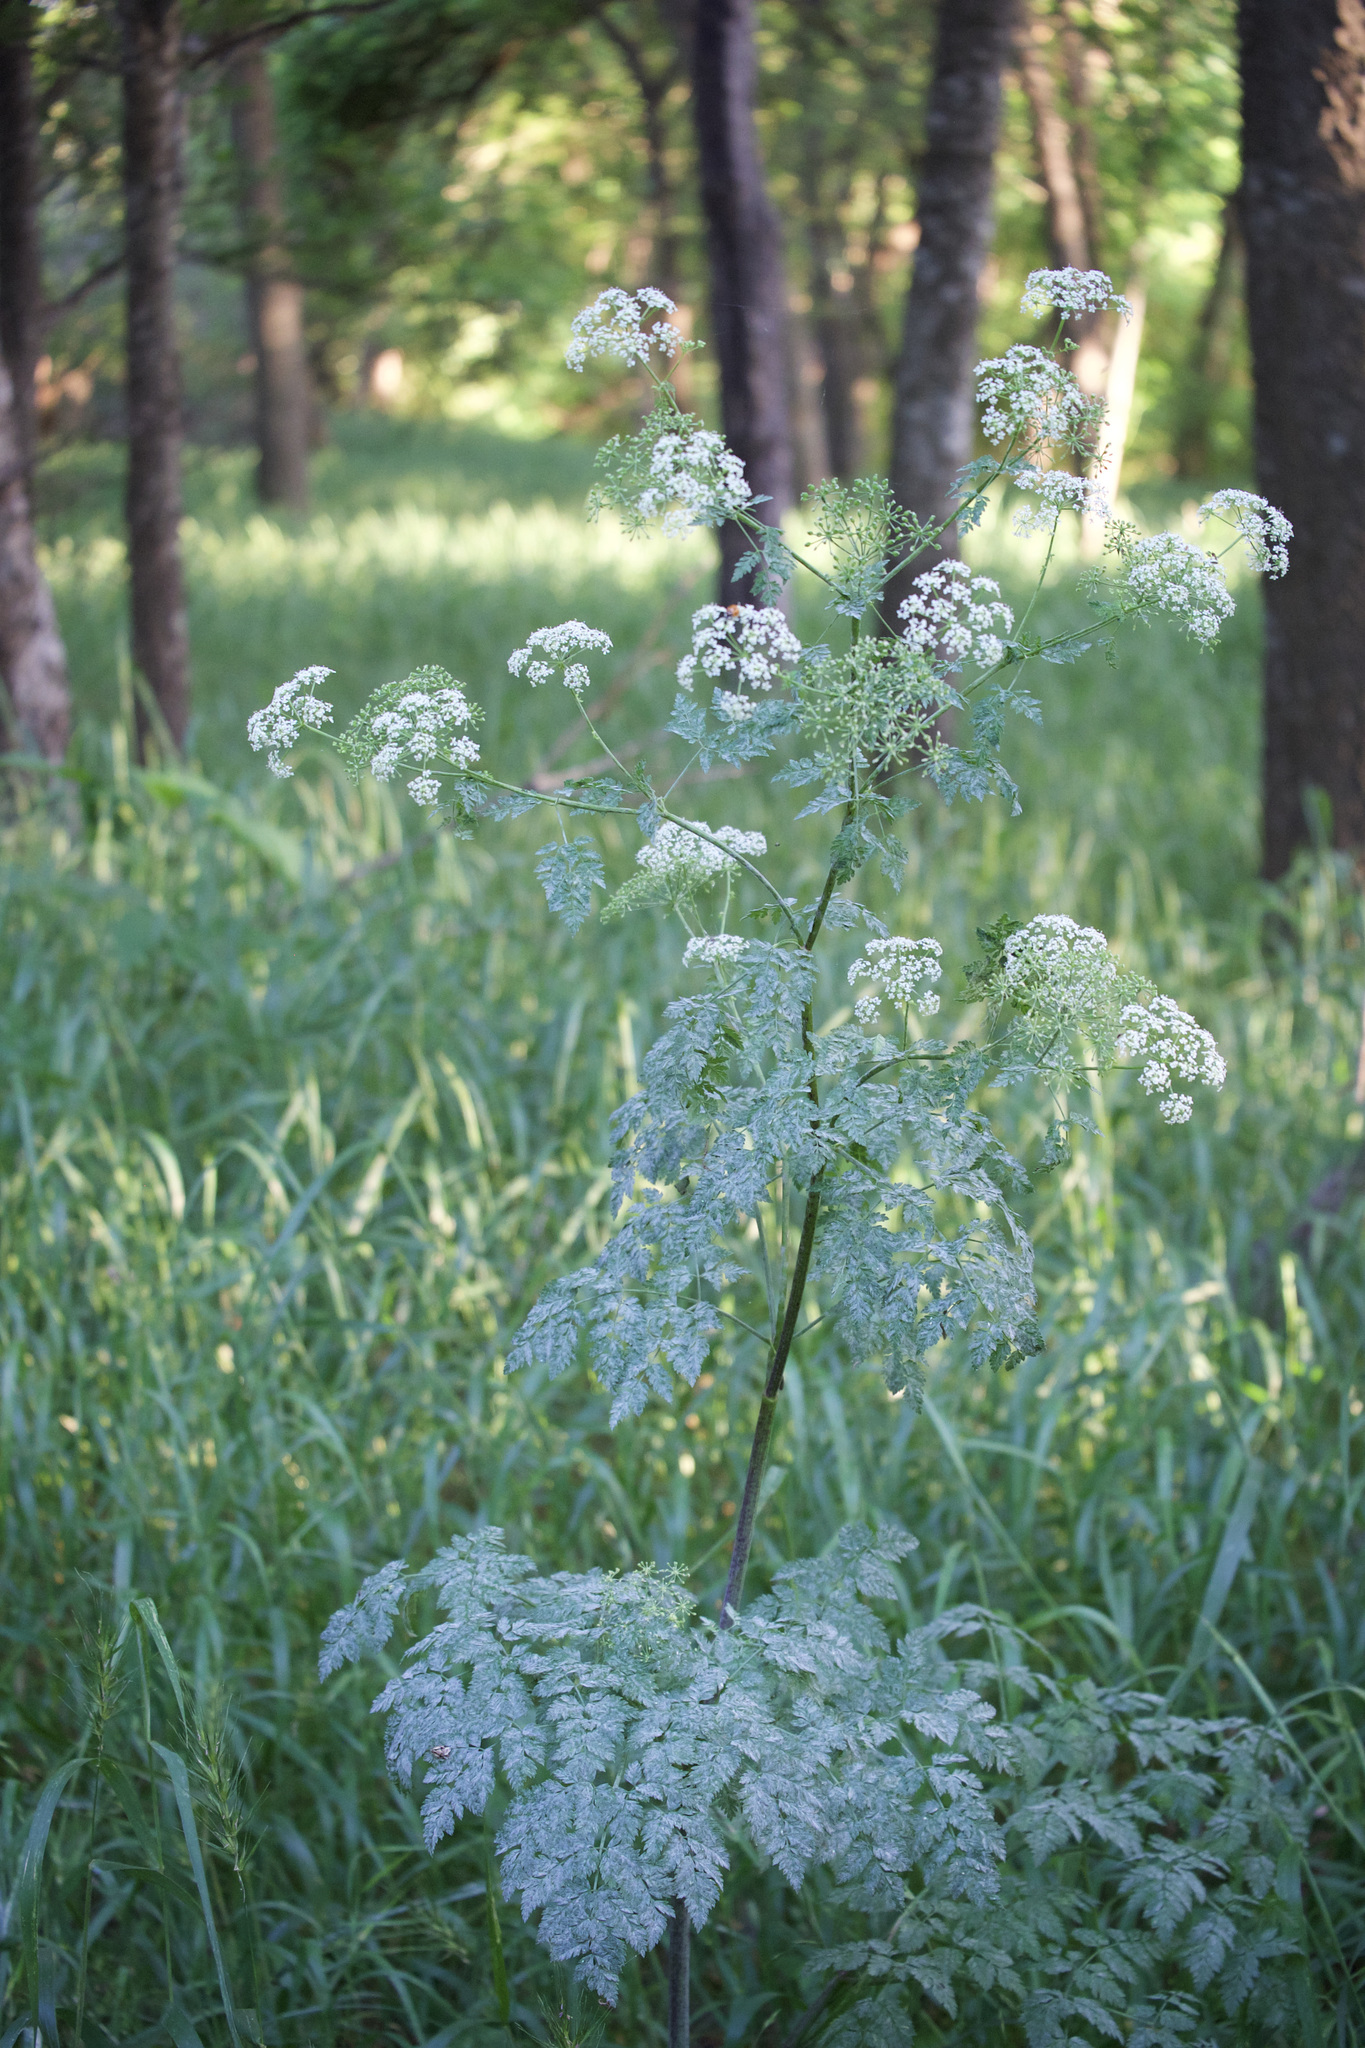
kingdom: Plantae
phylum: Tracheophyta
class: Magnoliopsida
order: Apiales
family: Apiaceae
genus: Conium
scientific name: Conium maculatum
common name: Hemlock
